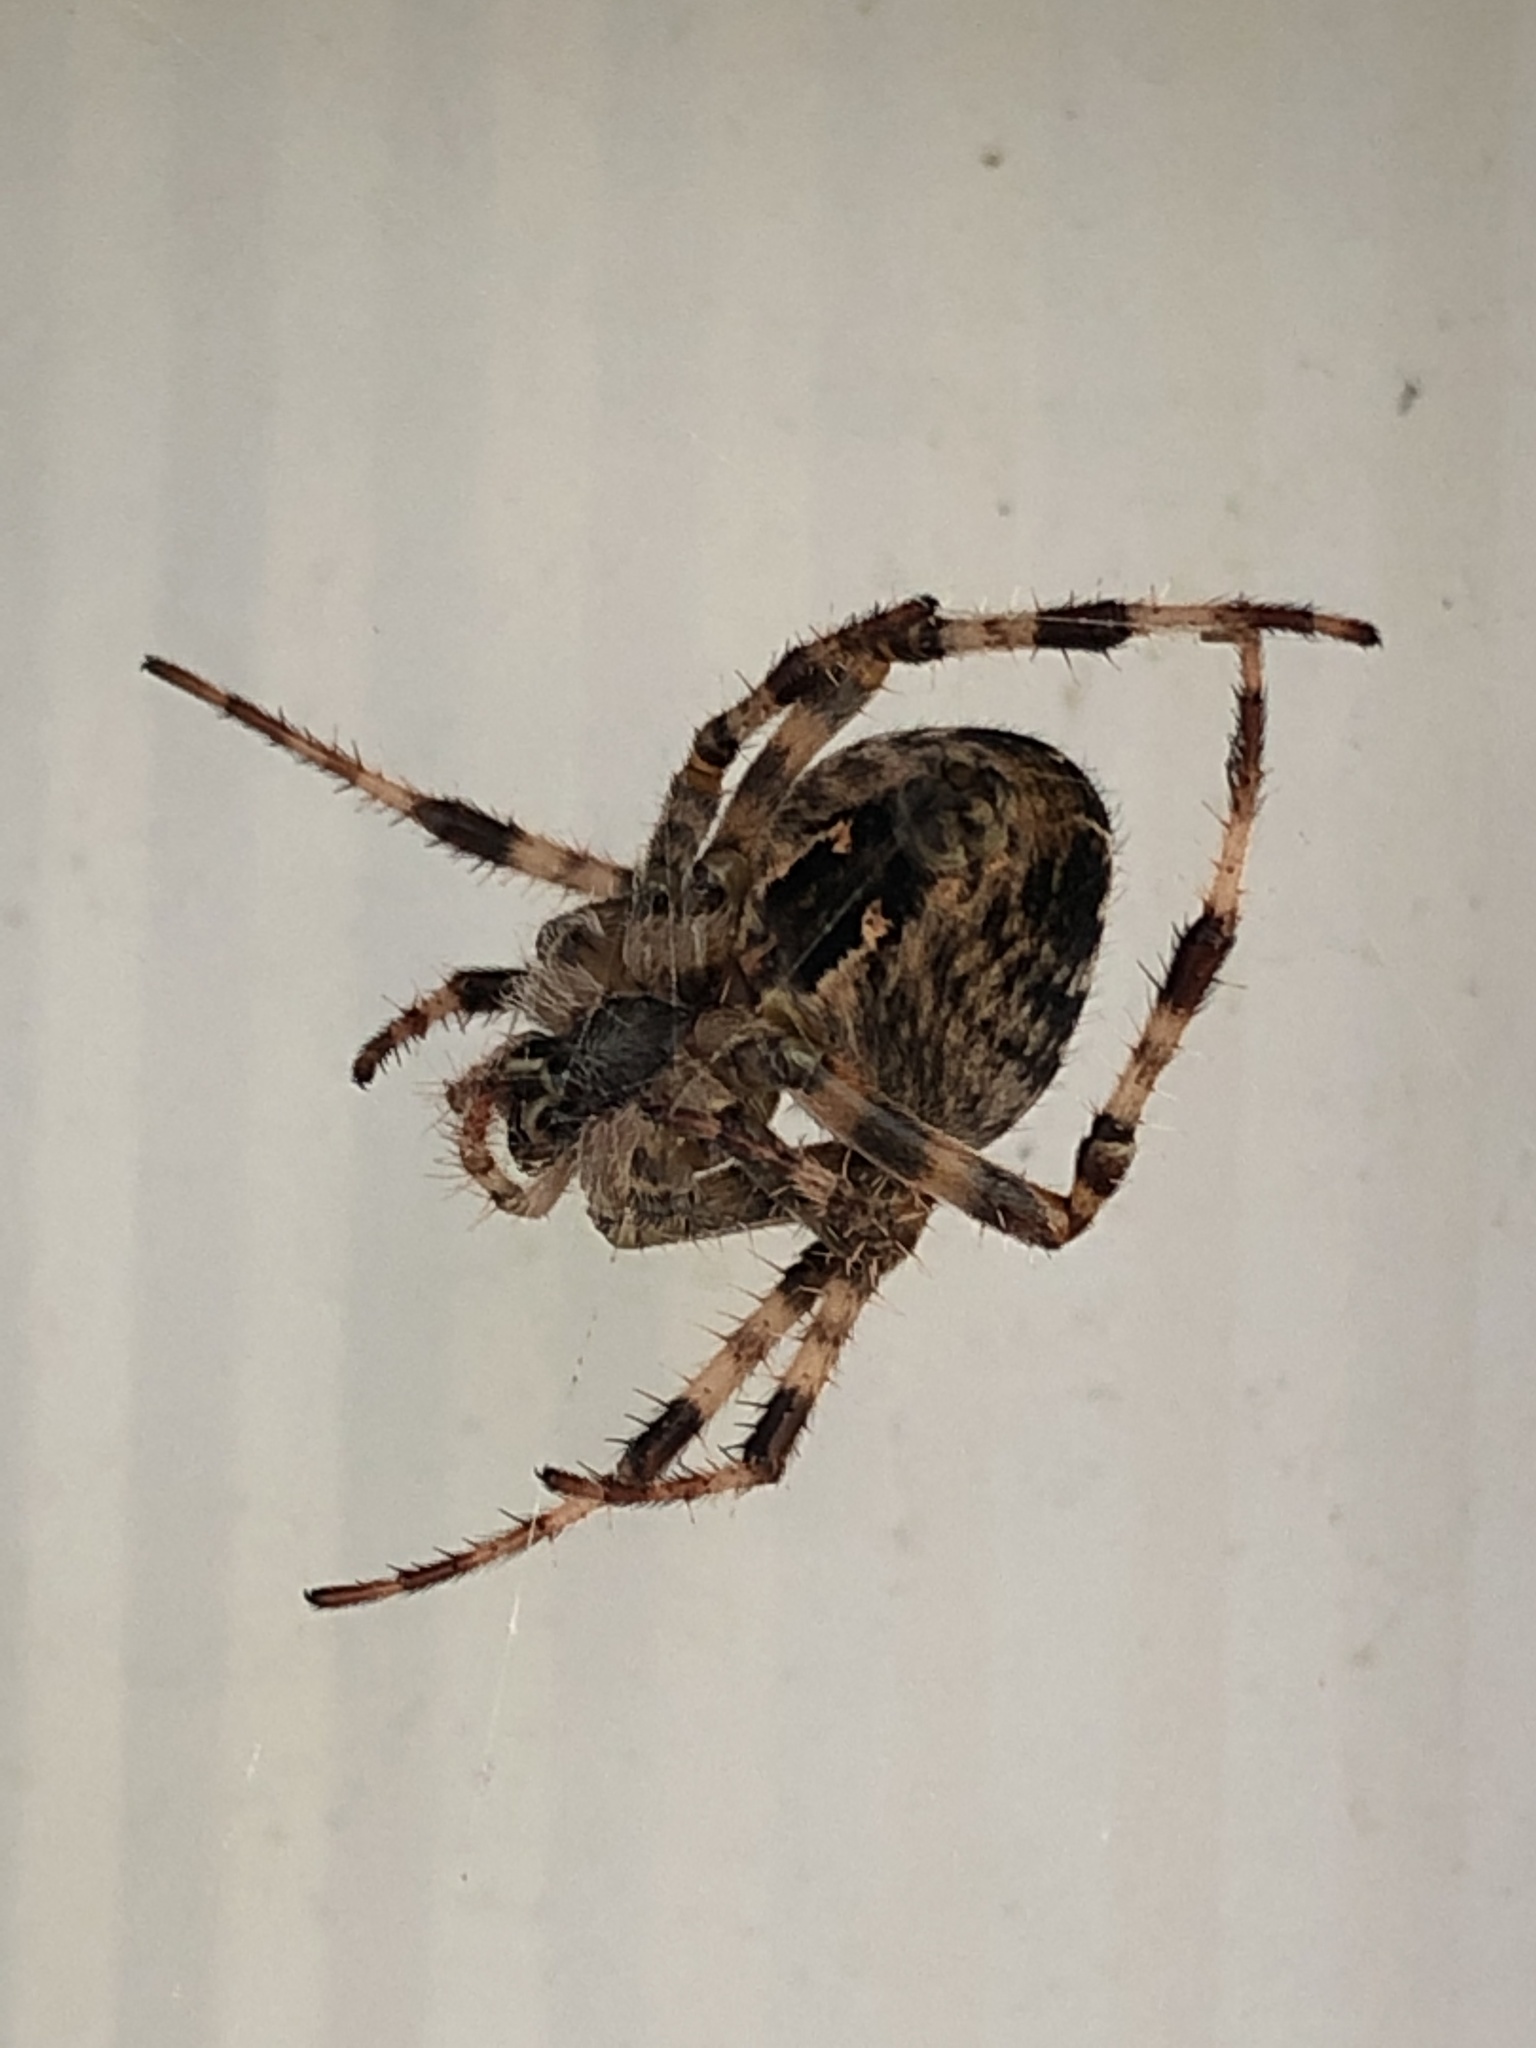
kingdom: Animalia
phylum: Arthropoda
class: Arachnida
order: Araneae
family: Araneidae
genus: Araneus
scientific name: Araneus diadematus
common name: Cross orbweaver
